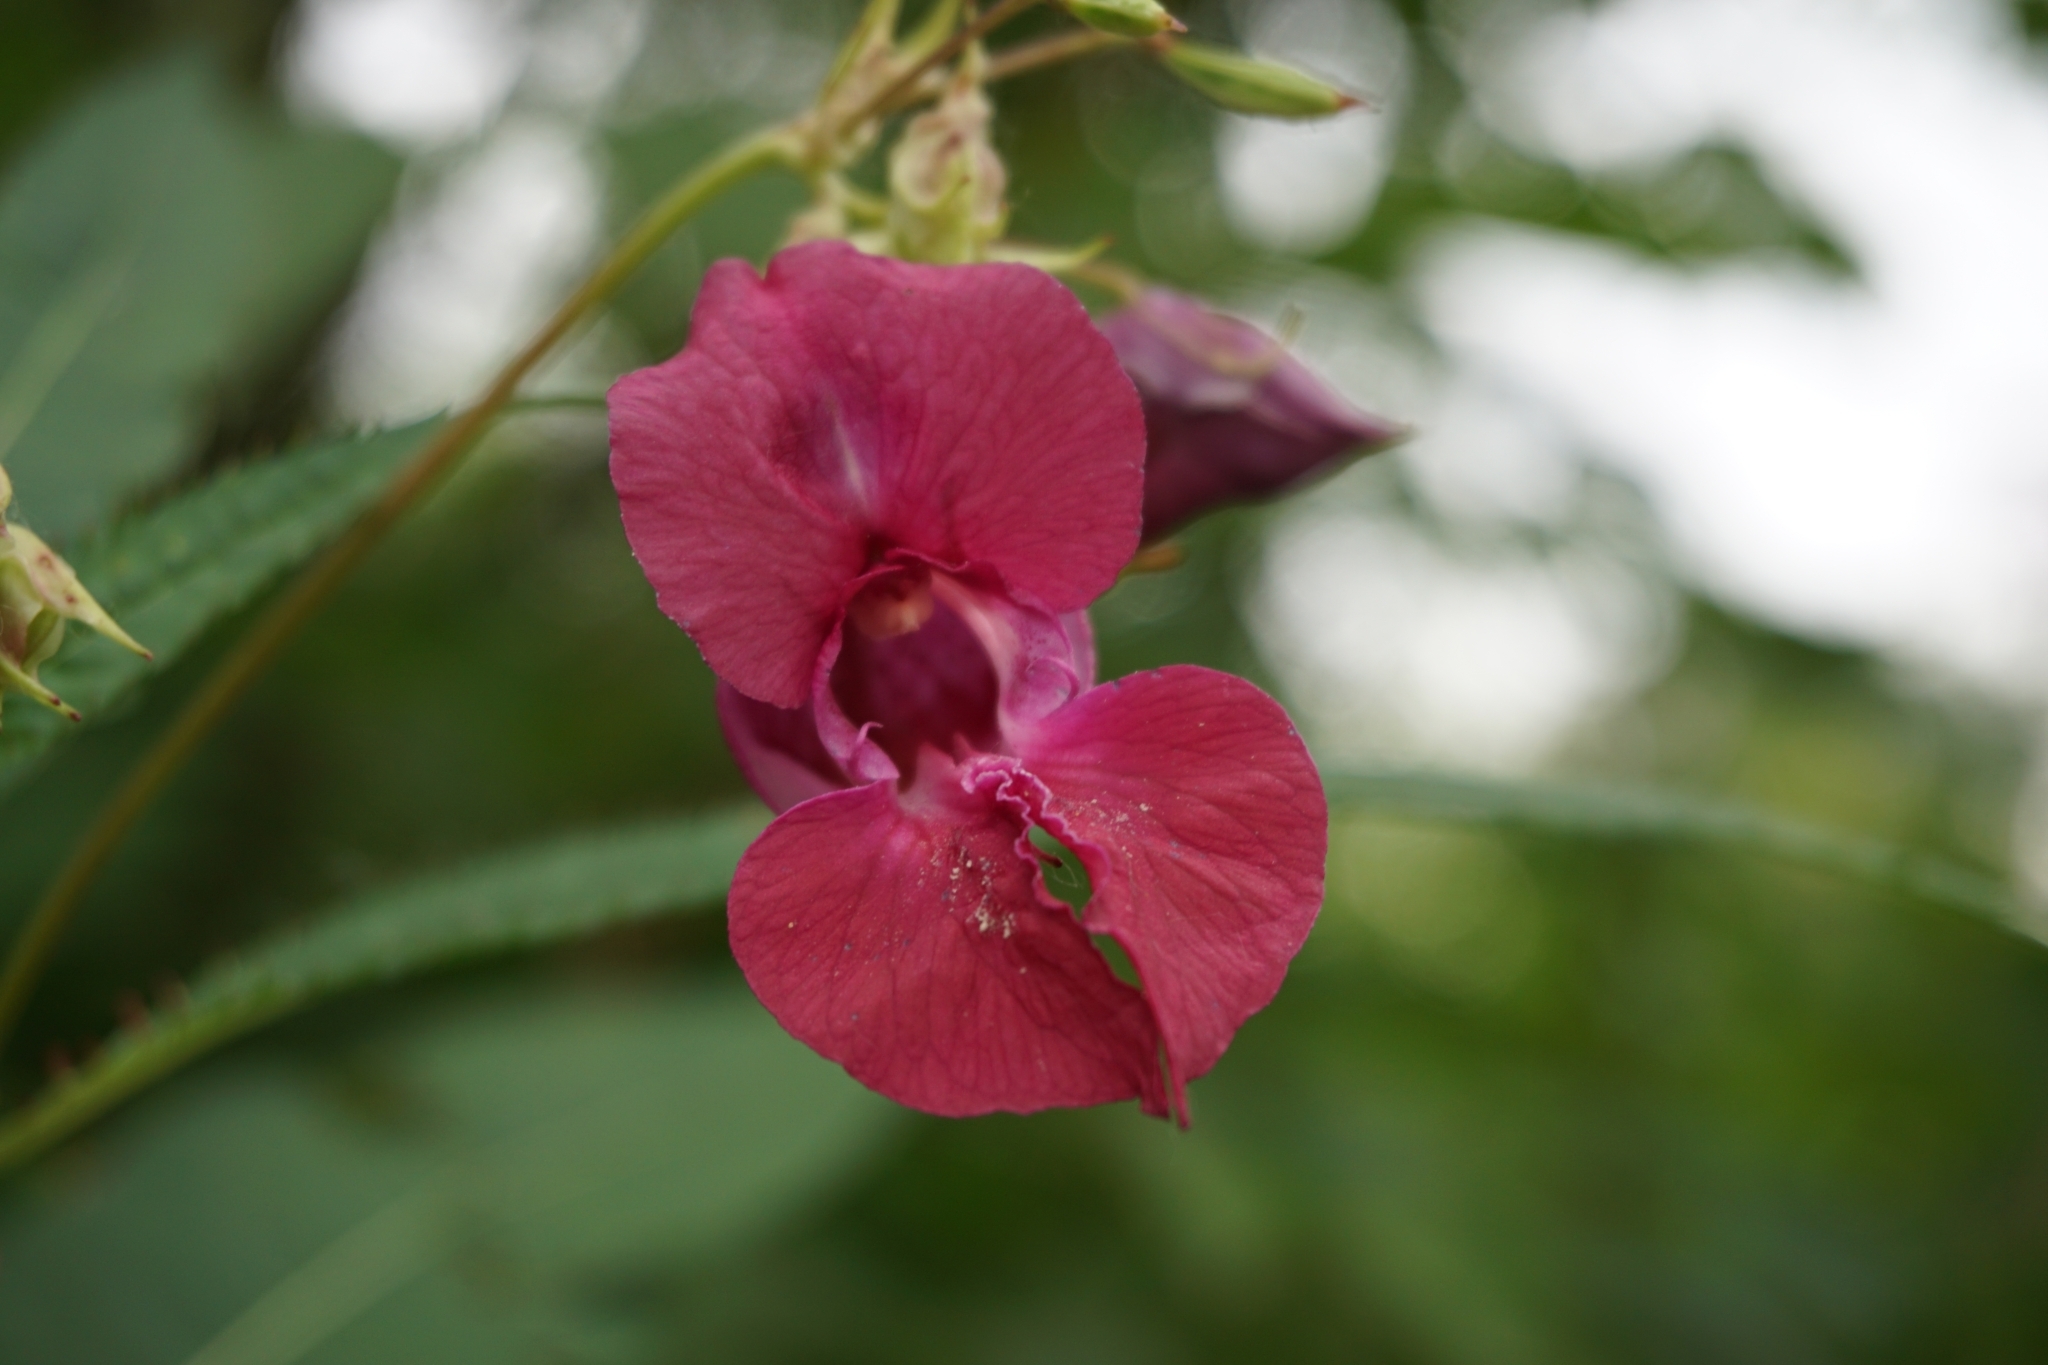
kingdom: Plantae
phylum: Tracheophyta
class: Magnoliopsida
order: Ericales
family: Balsaminaceae
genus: Impatiens
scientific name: Impatiens glandulifera
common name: Himalayan balsam
